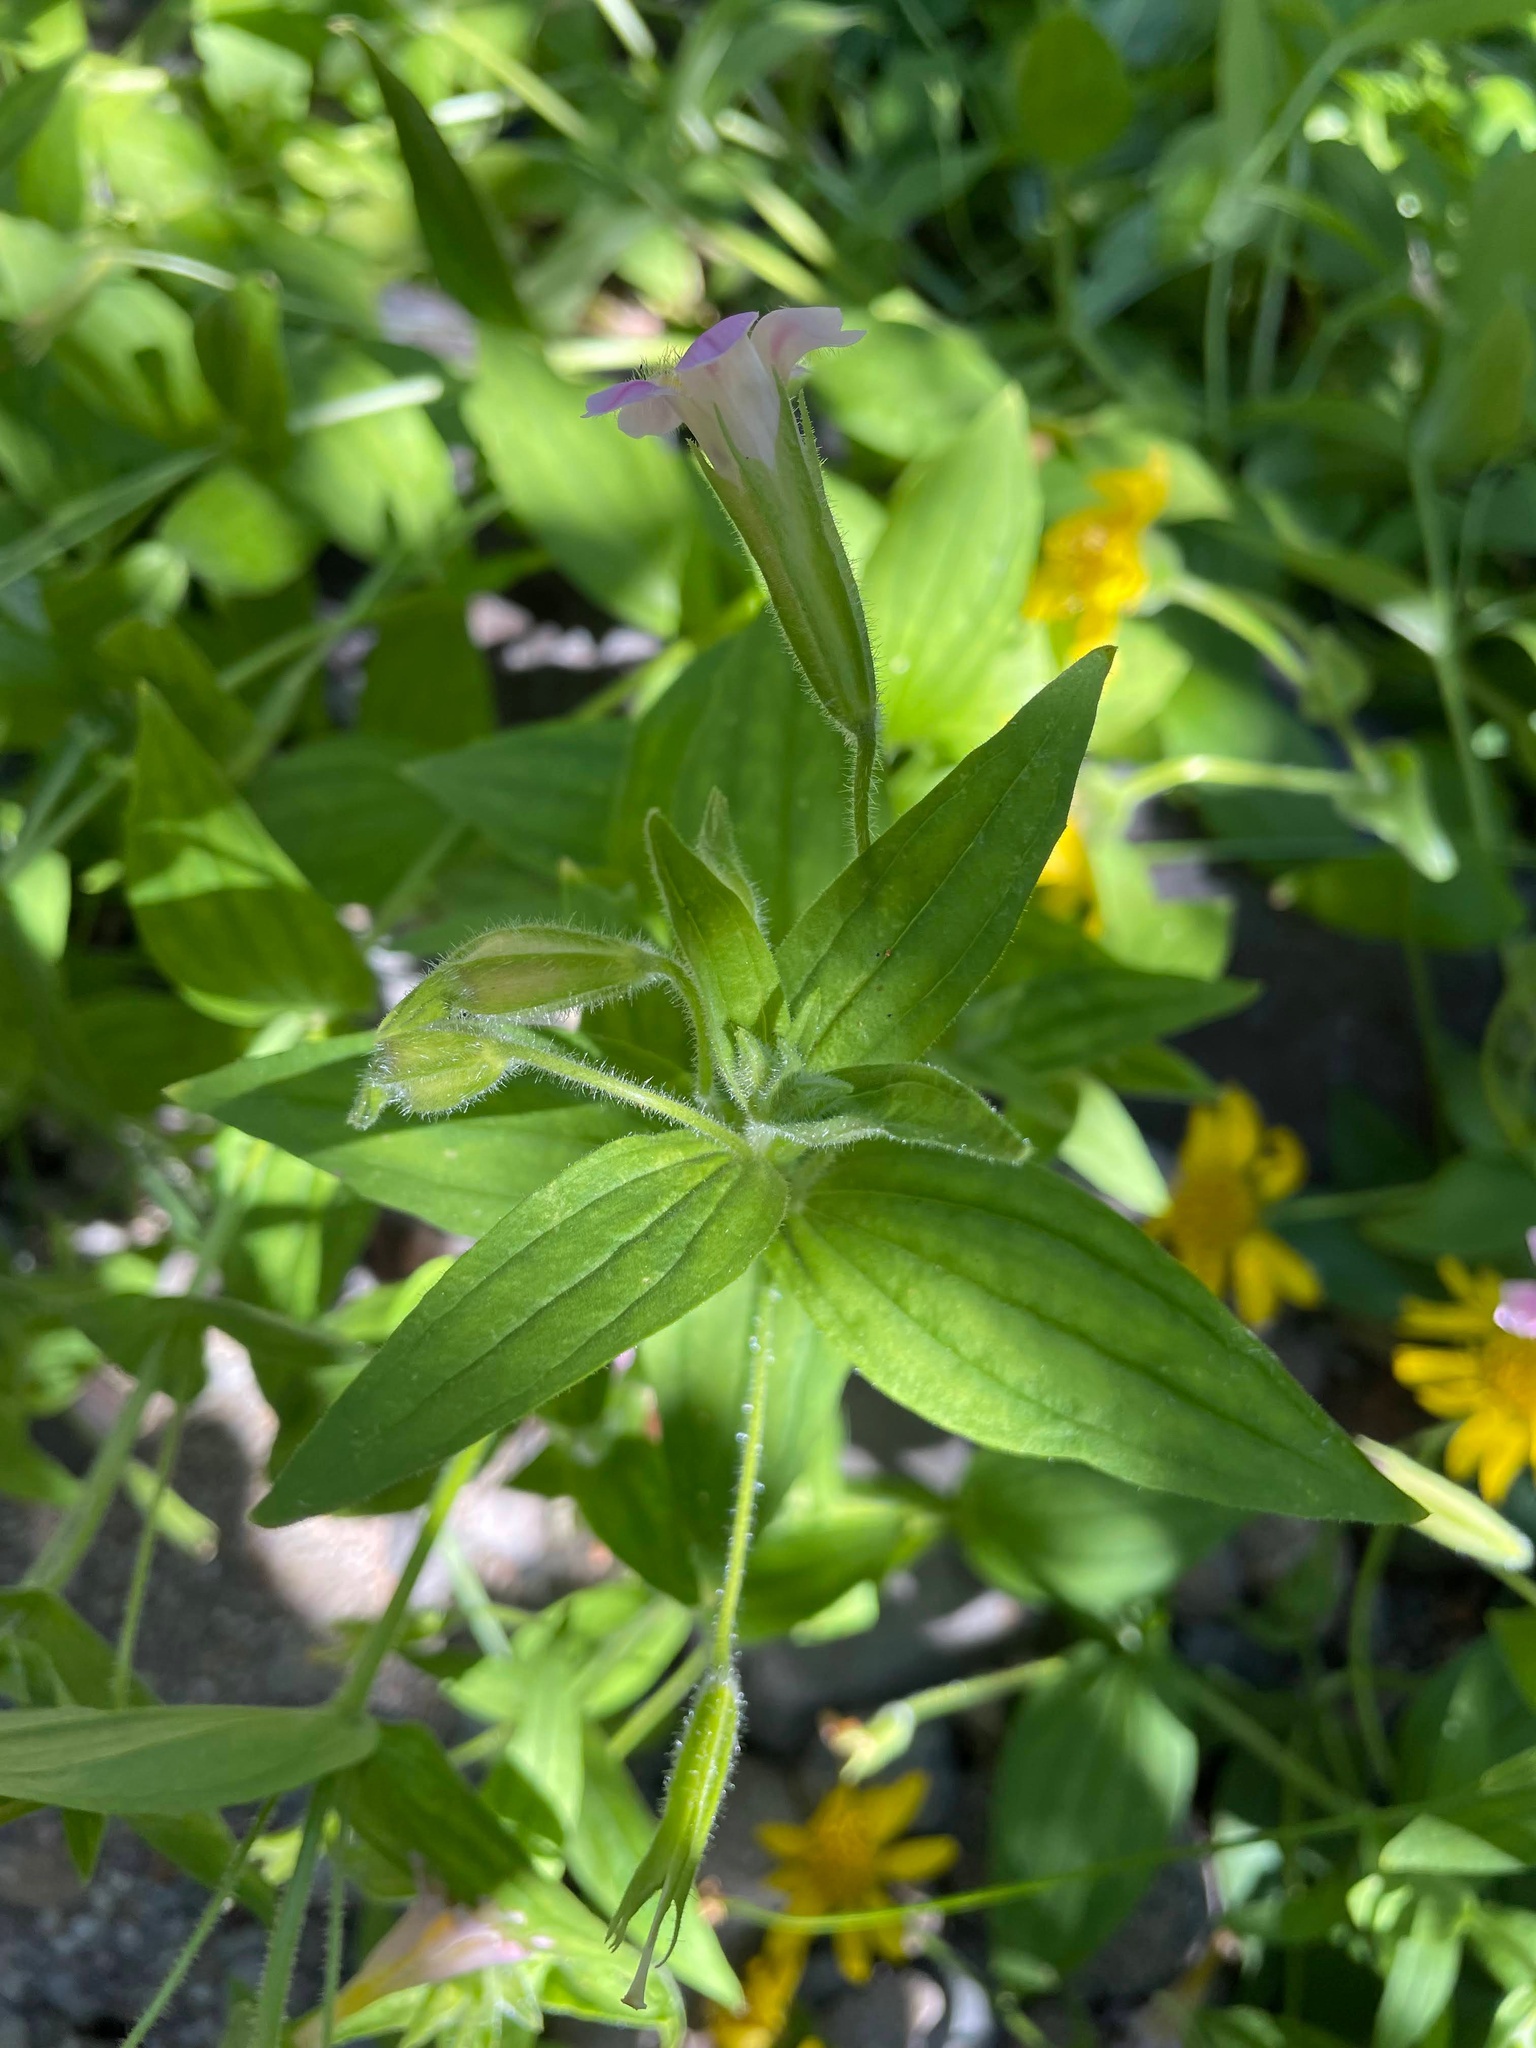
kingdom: Plantae
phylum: Tracheophyta
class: Magnoliopsida
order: Lamiales
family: Phrymaceae
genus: Erythranthe
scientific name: Erythranthe erubescens
